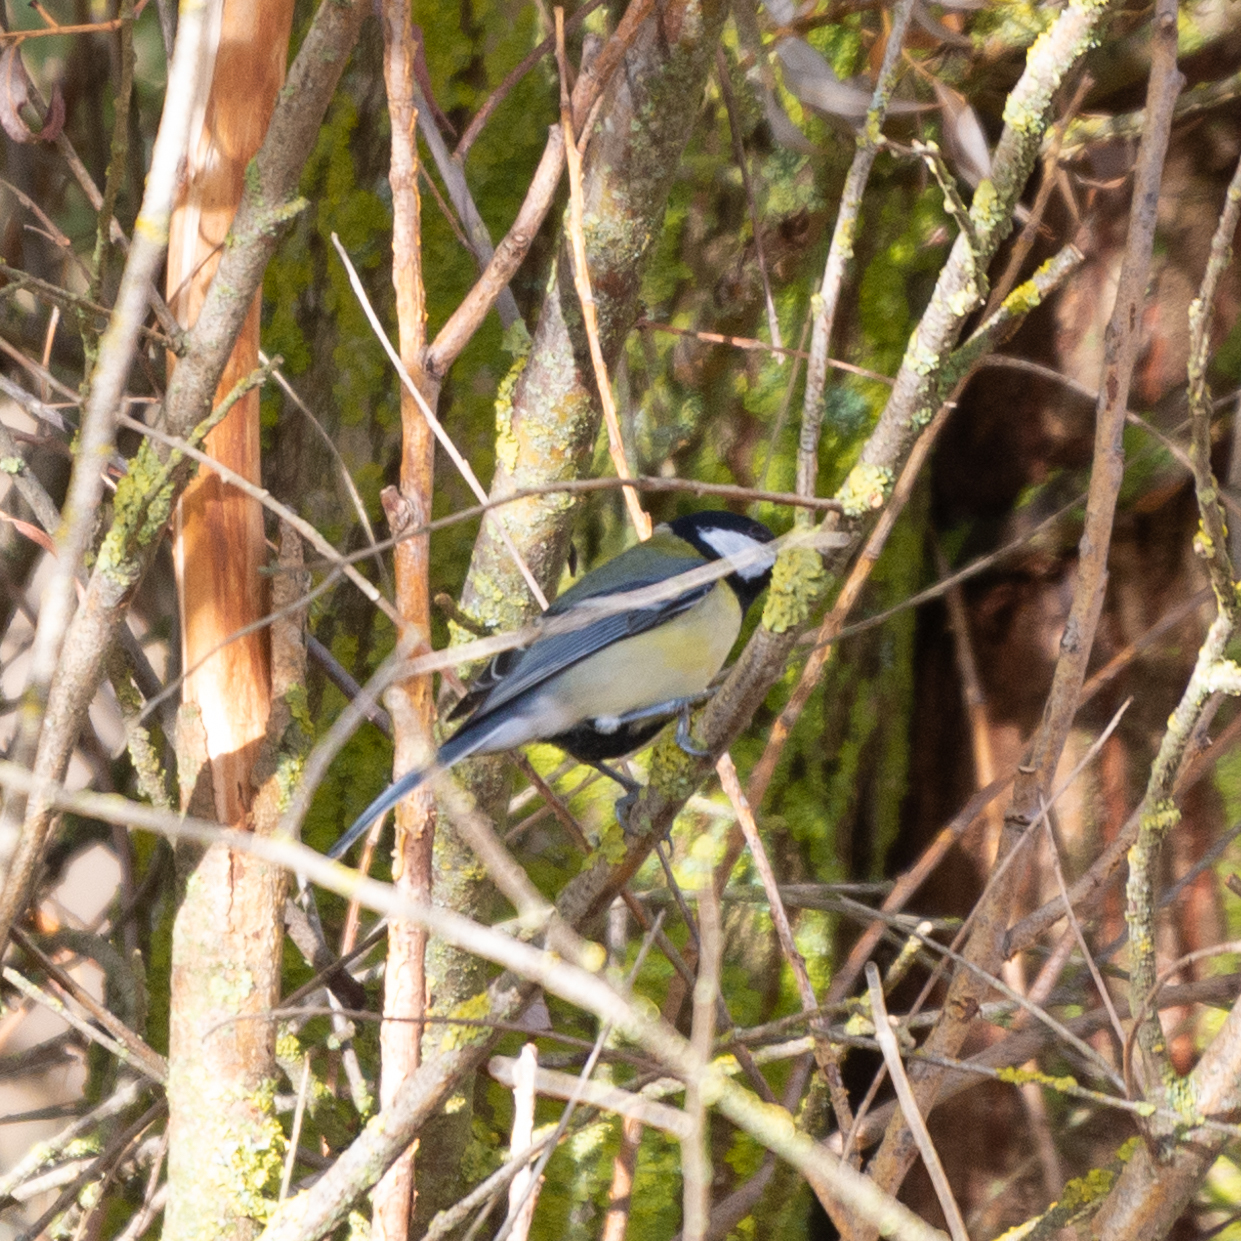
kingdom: Animalia
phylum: Chordata
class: Aves
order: Passeriformes
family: Paridae
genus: Parus
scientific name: Parus major
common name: Great tit
